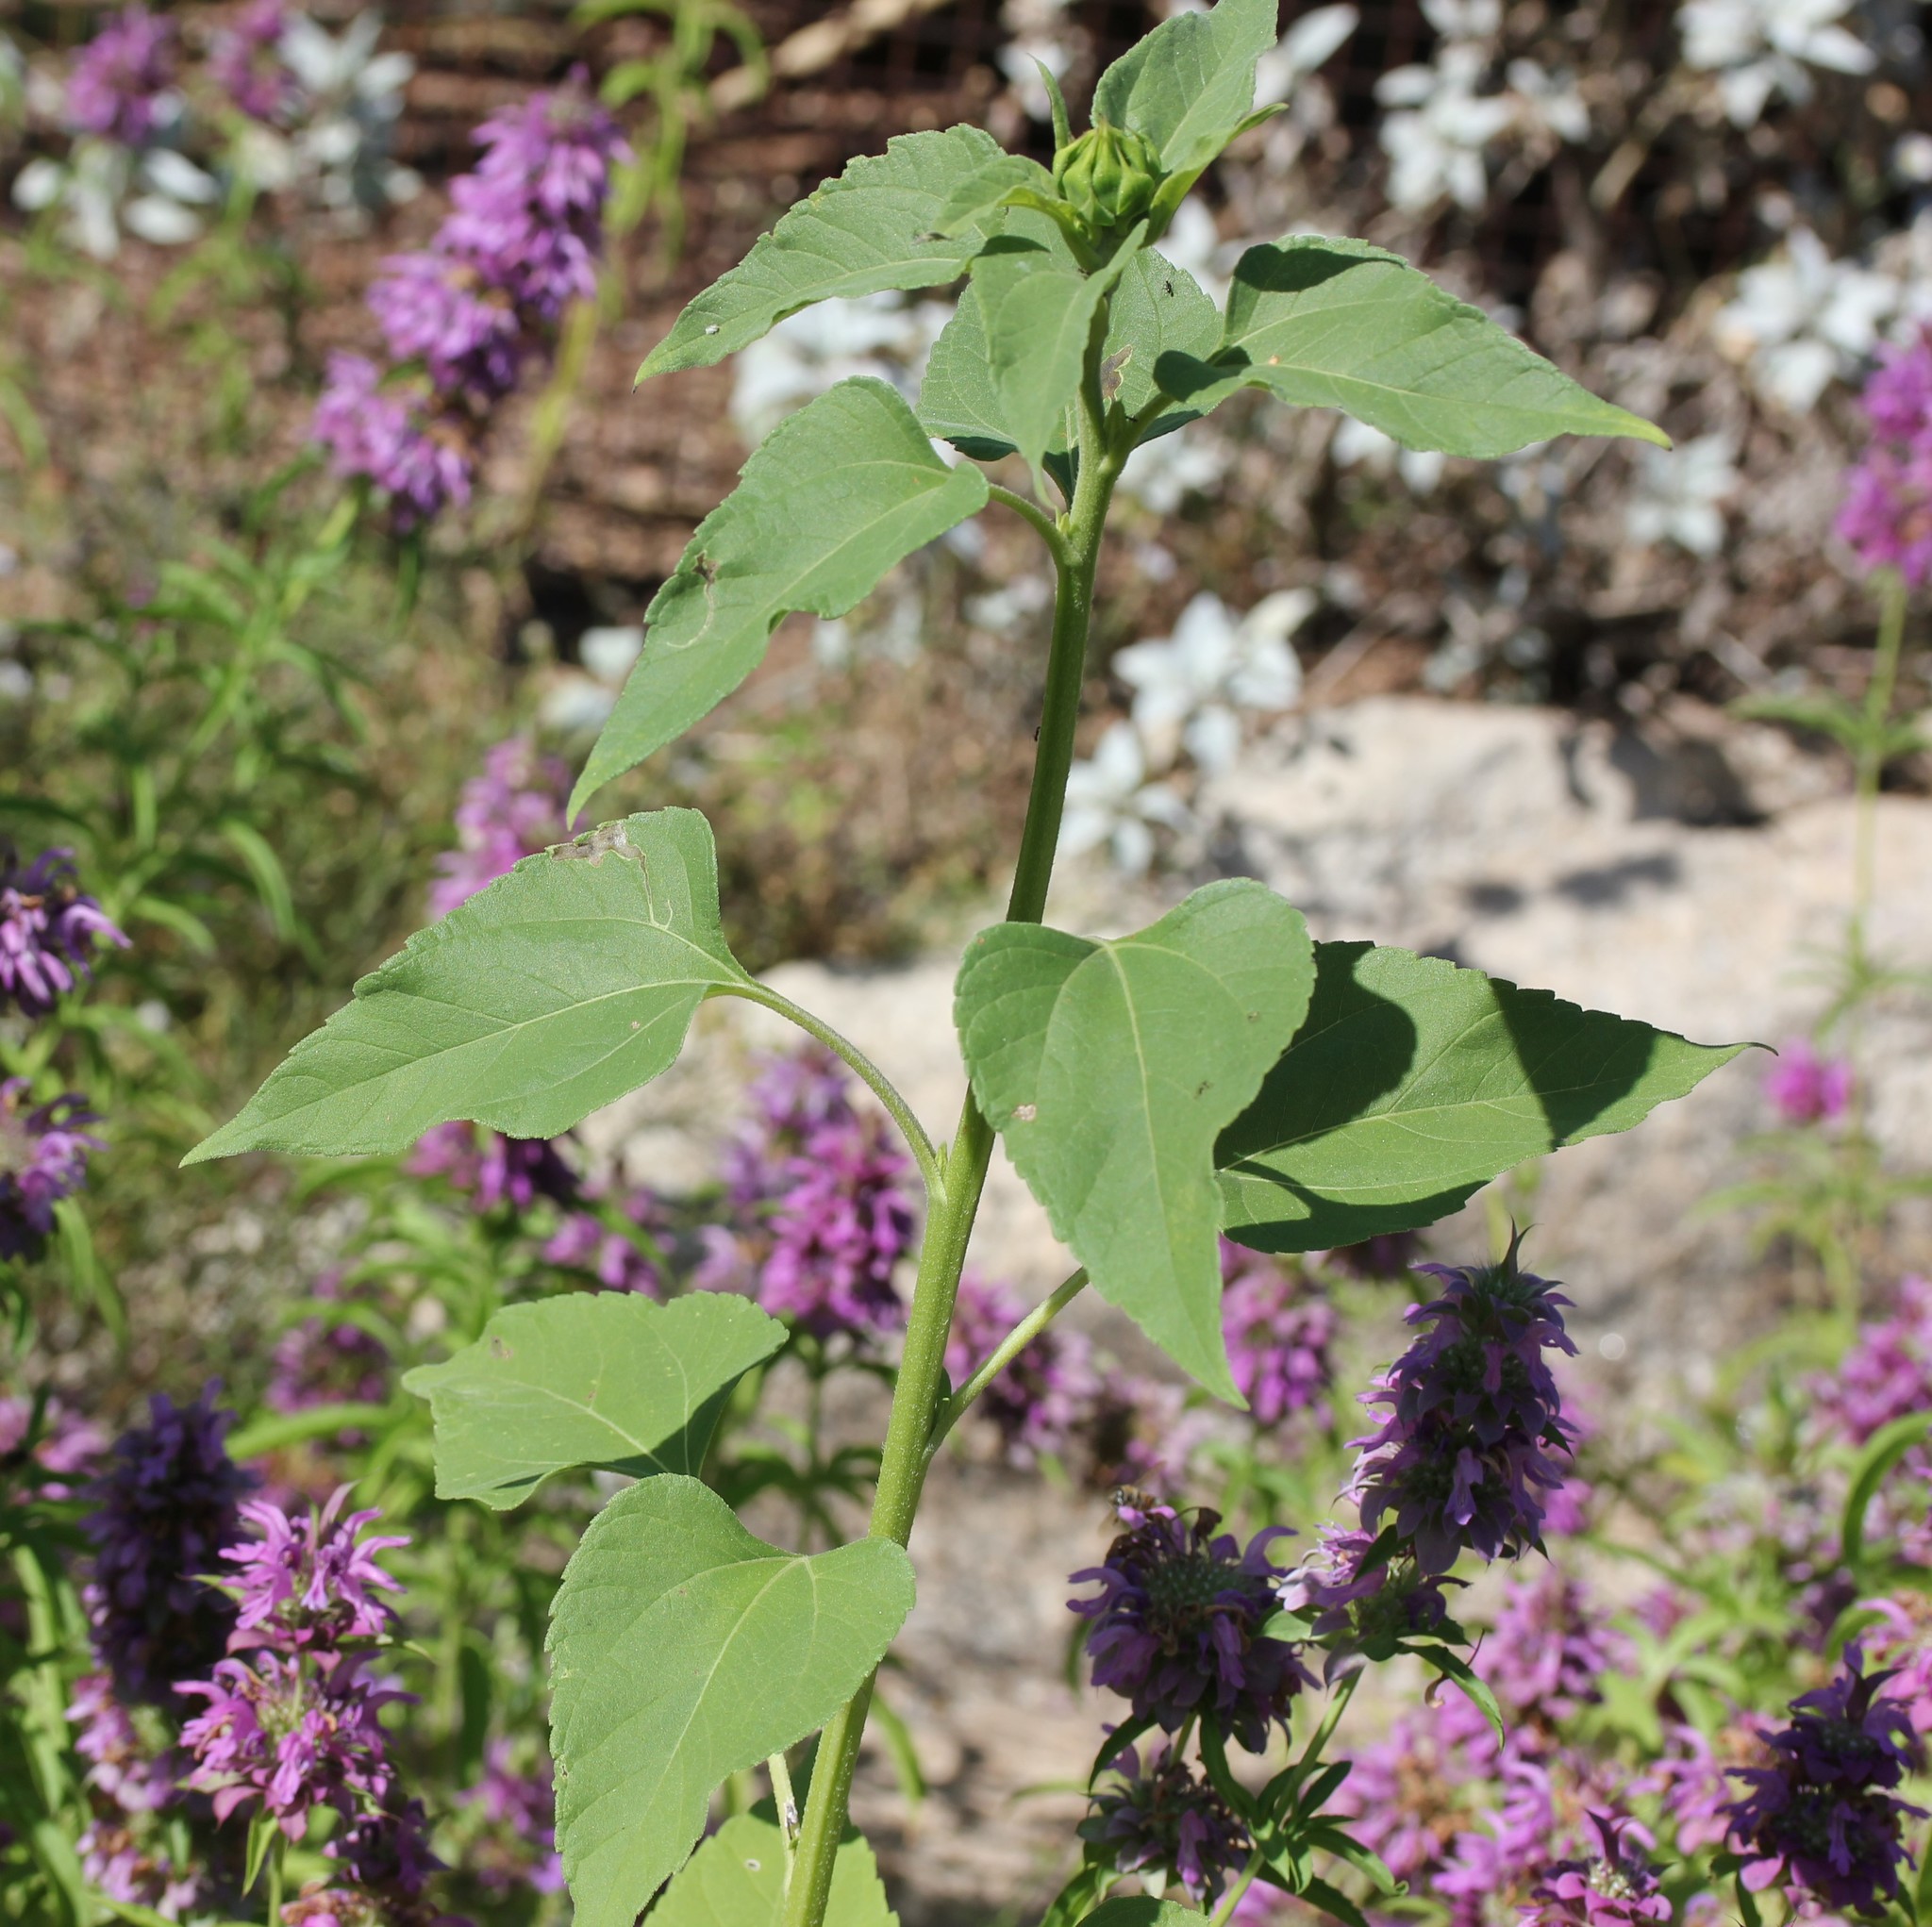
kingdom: Plantae
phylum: Tracheophyta
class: Magnoliopsida
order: Asterales
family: Asteraceae
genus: Helianthus
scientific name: Helianthus annuus
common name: Sunflower
